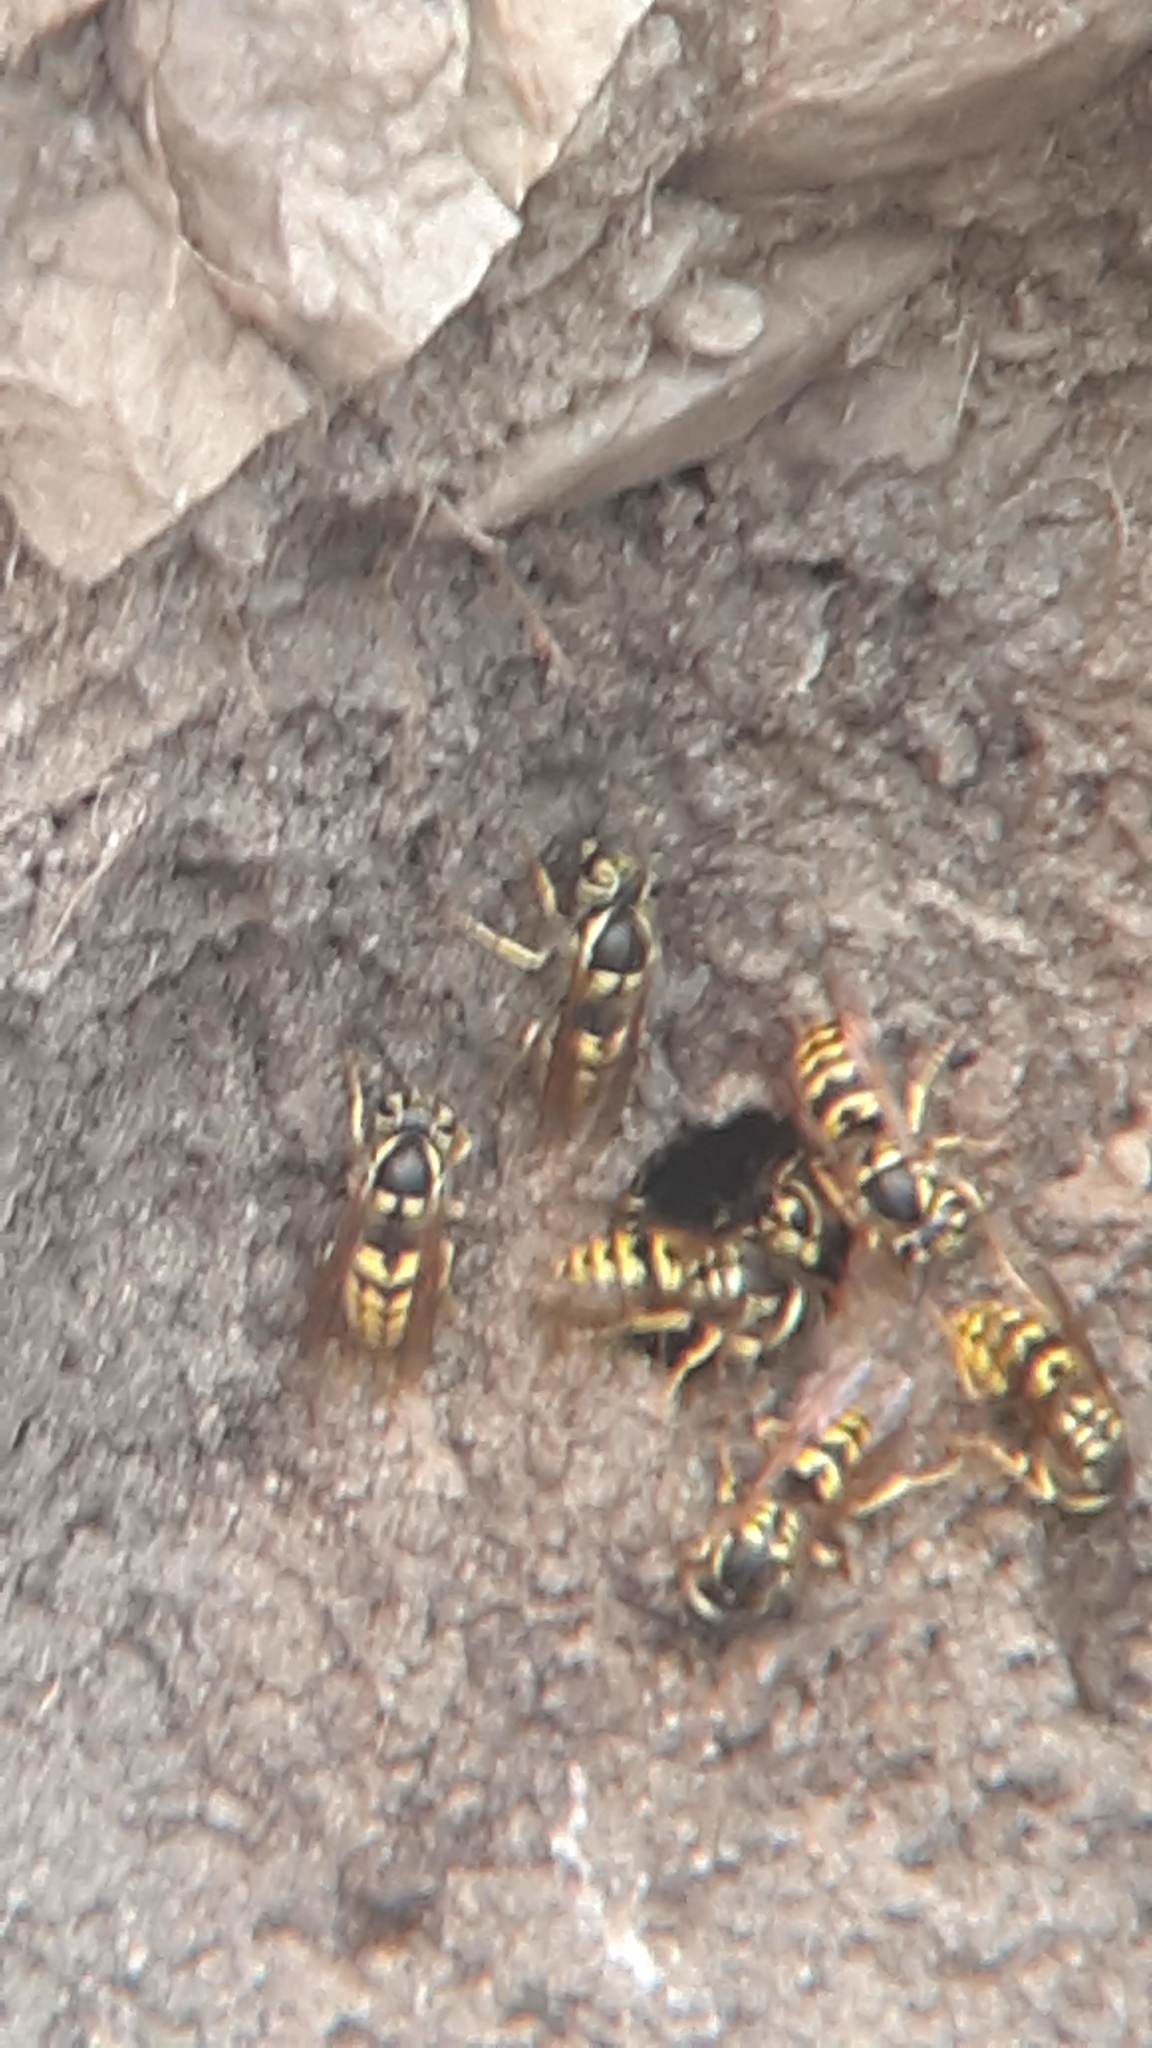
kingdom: Animalia
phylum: Arthropoda
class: Insecta
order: Hymenoptera
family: Vespidae
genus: Vespula
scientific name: Vespula pensylvanica
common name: Western yellowjacket
